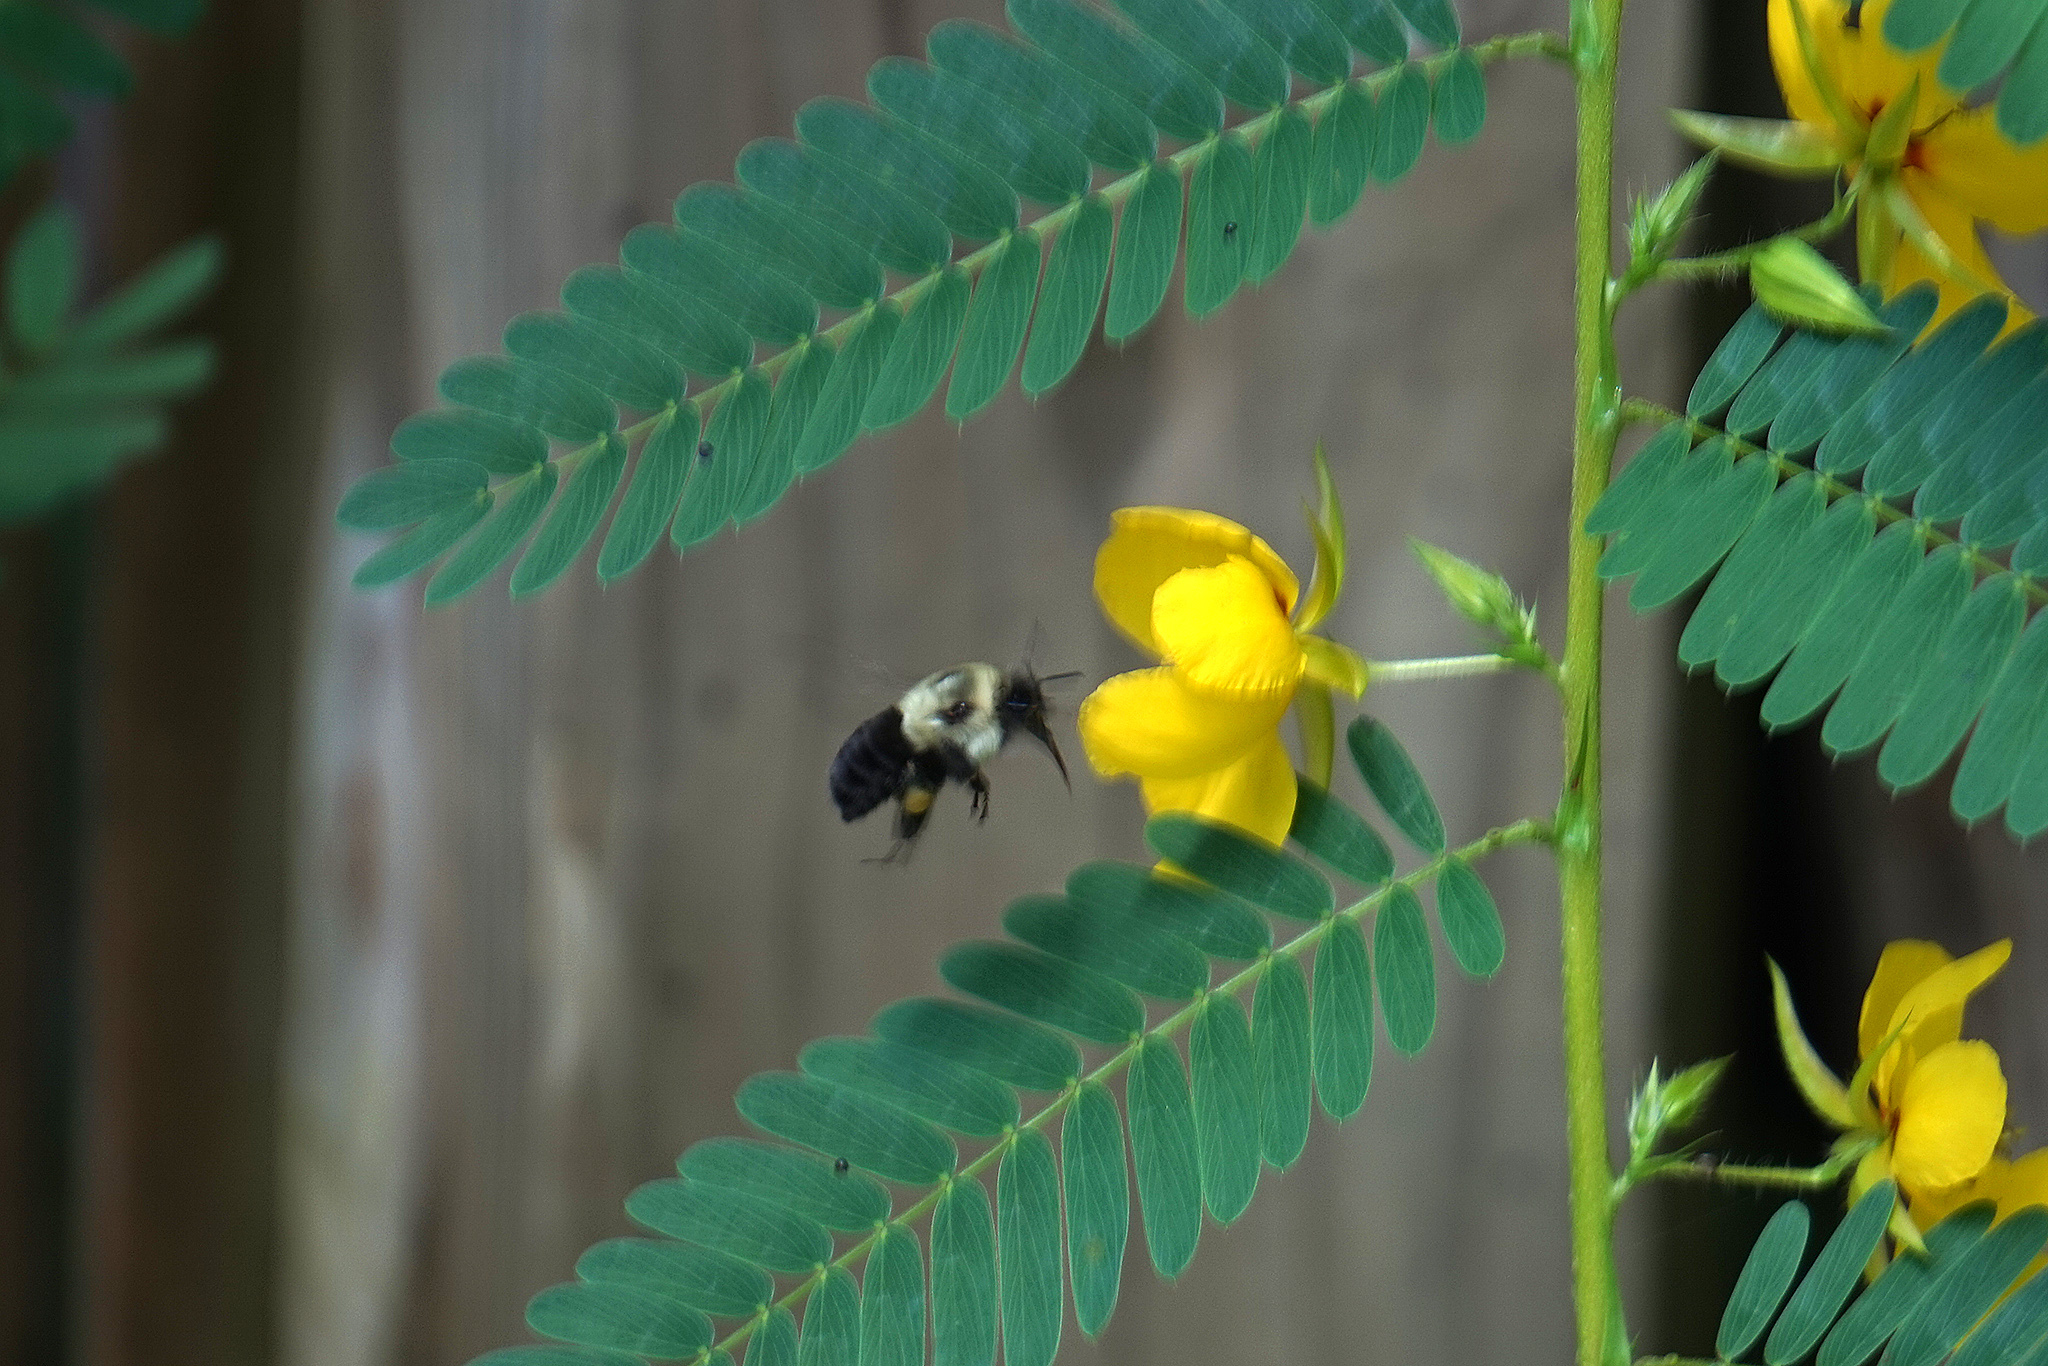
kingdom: Animalia
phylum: Arthropoda
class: Insecta
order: Hymenoptera
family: Apidae
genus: Bombus
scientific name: Bombus impatiens
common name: Common eastern bumble bee
